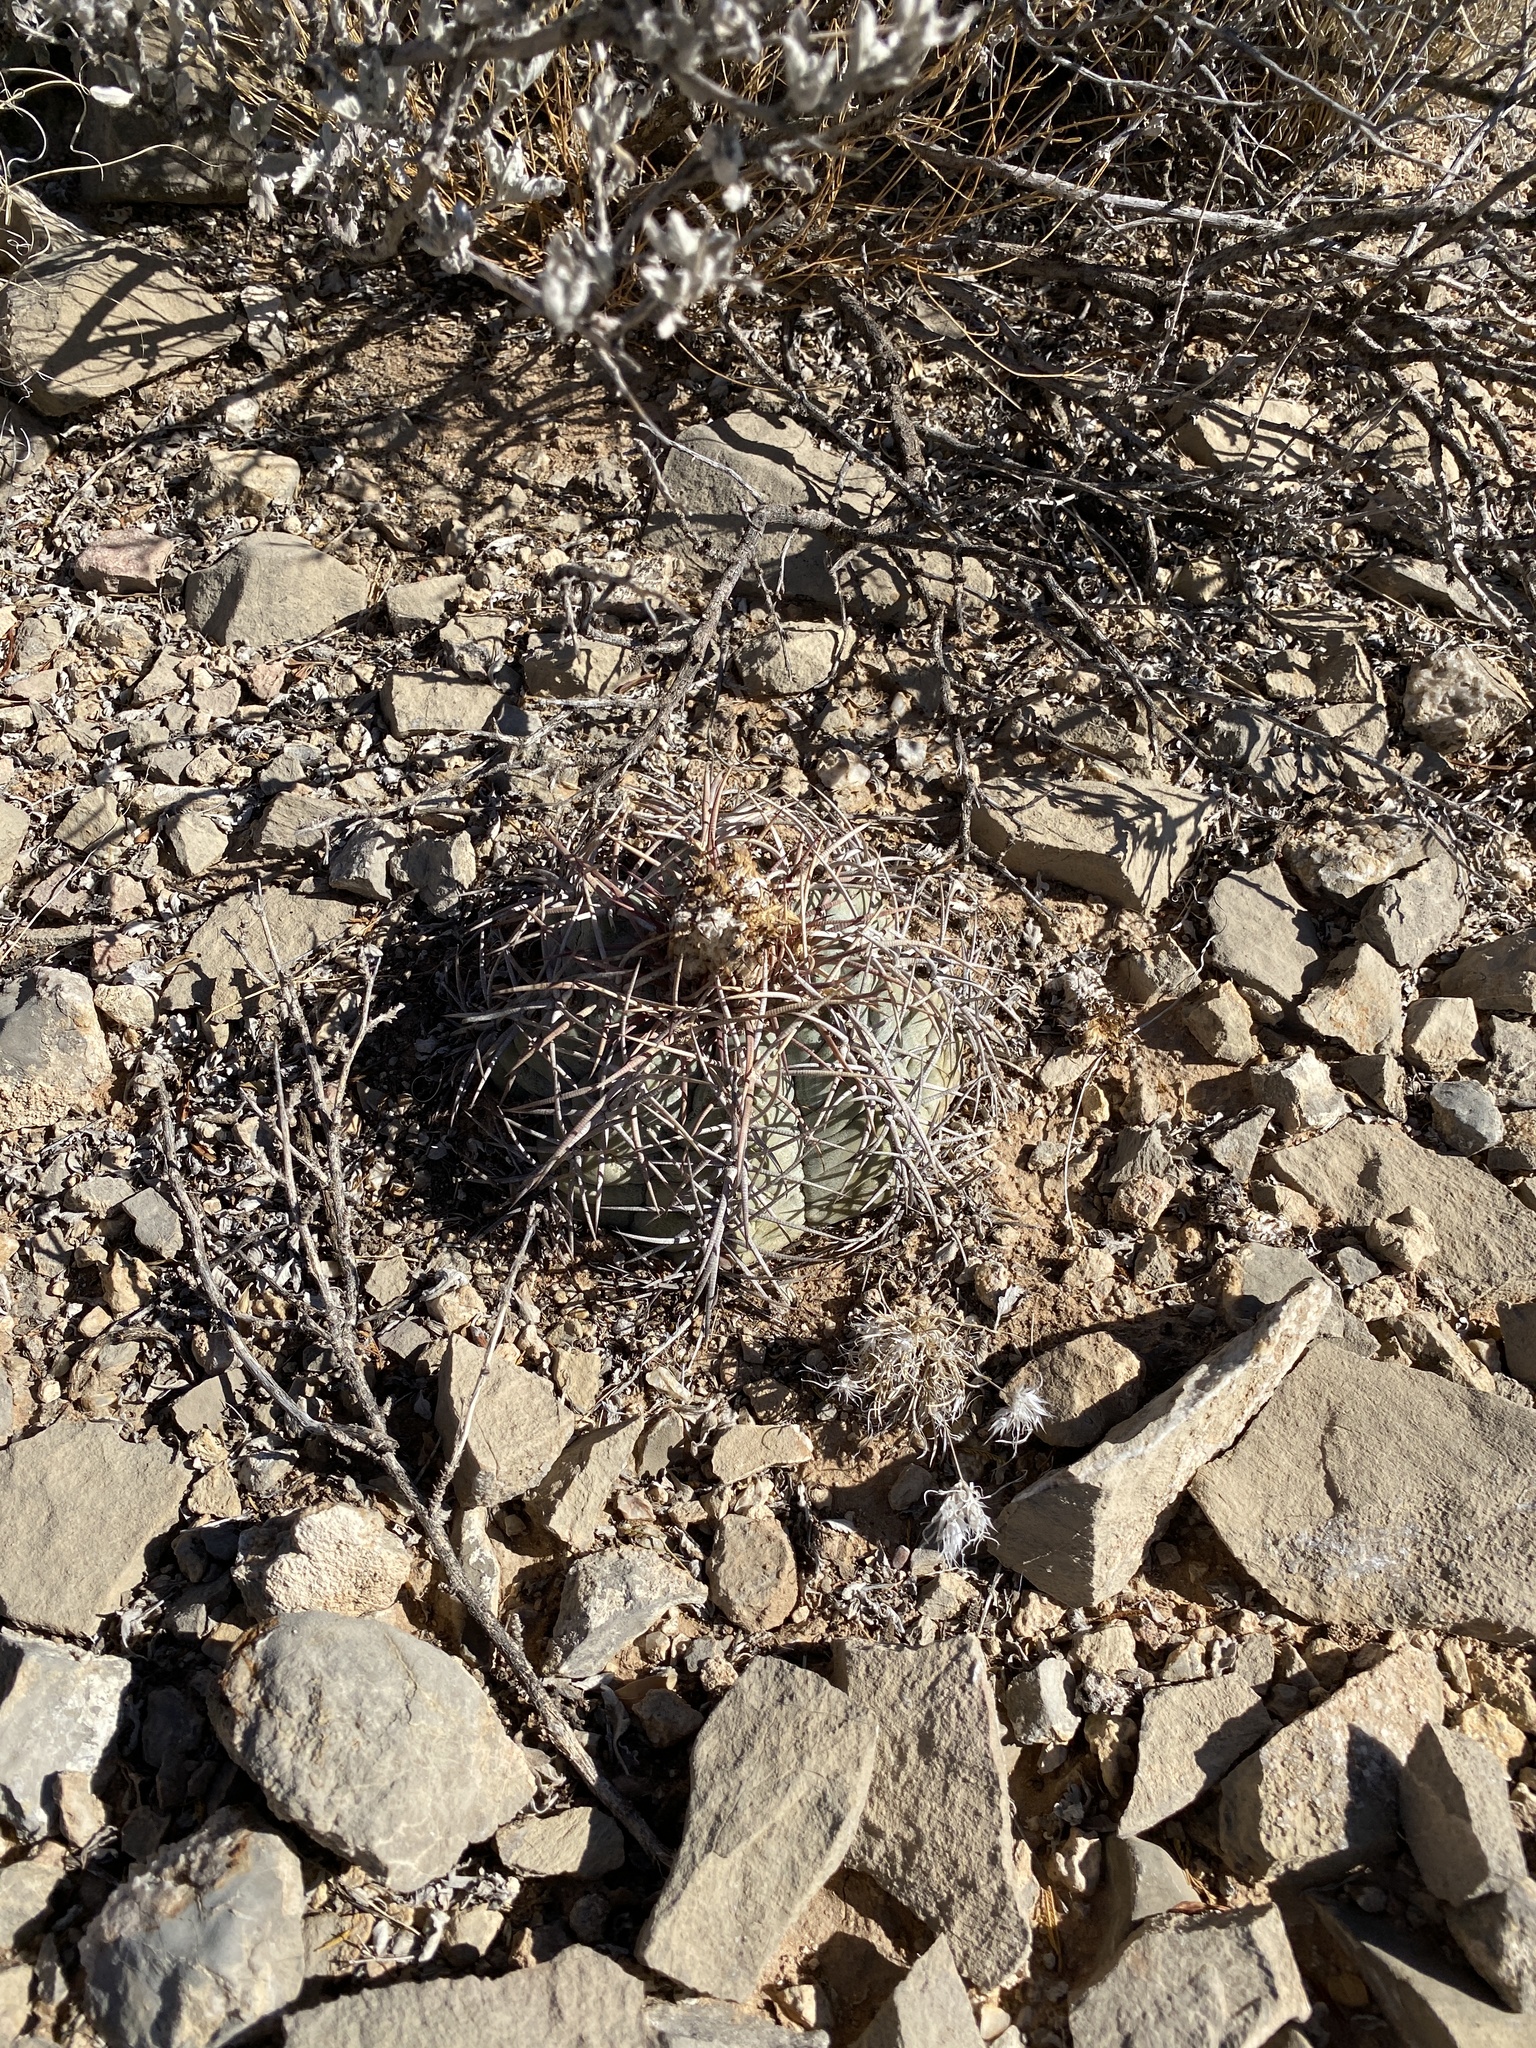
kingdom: Plantae
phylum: Tracheophyta
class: Magnoliopsida
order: Caryophyllales
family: Cactaceae
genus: Echinocactus
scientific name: Echinocactus horizonthalonius
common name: Devilshead
